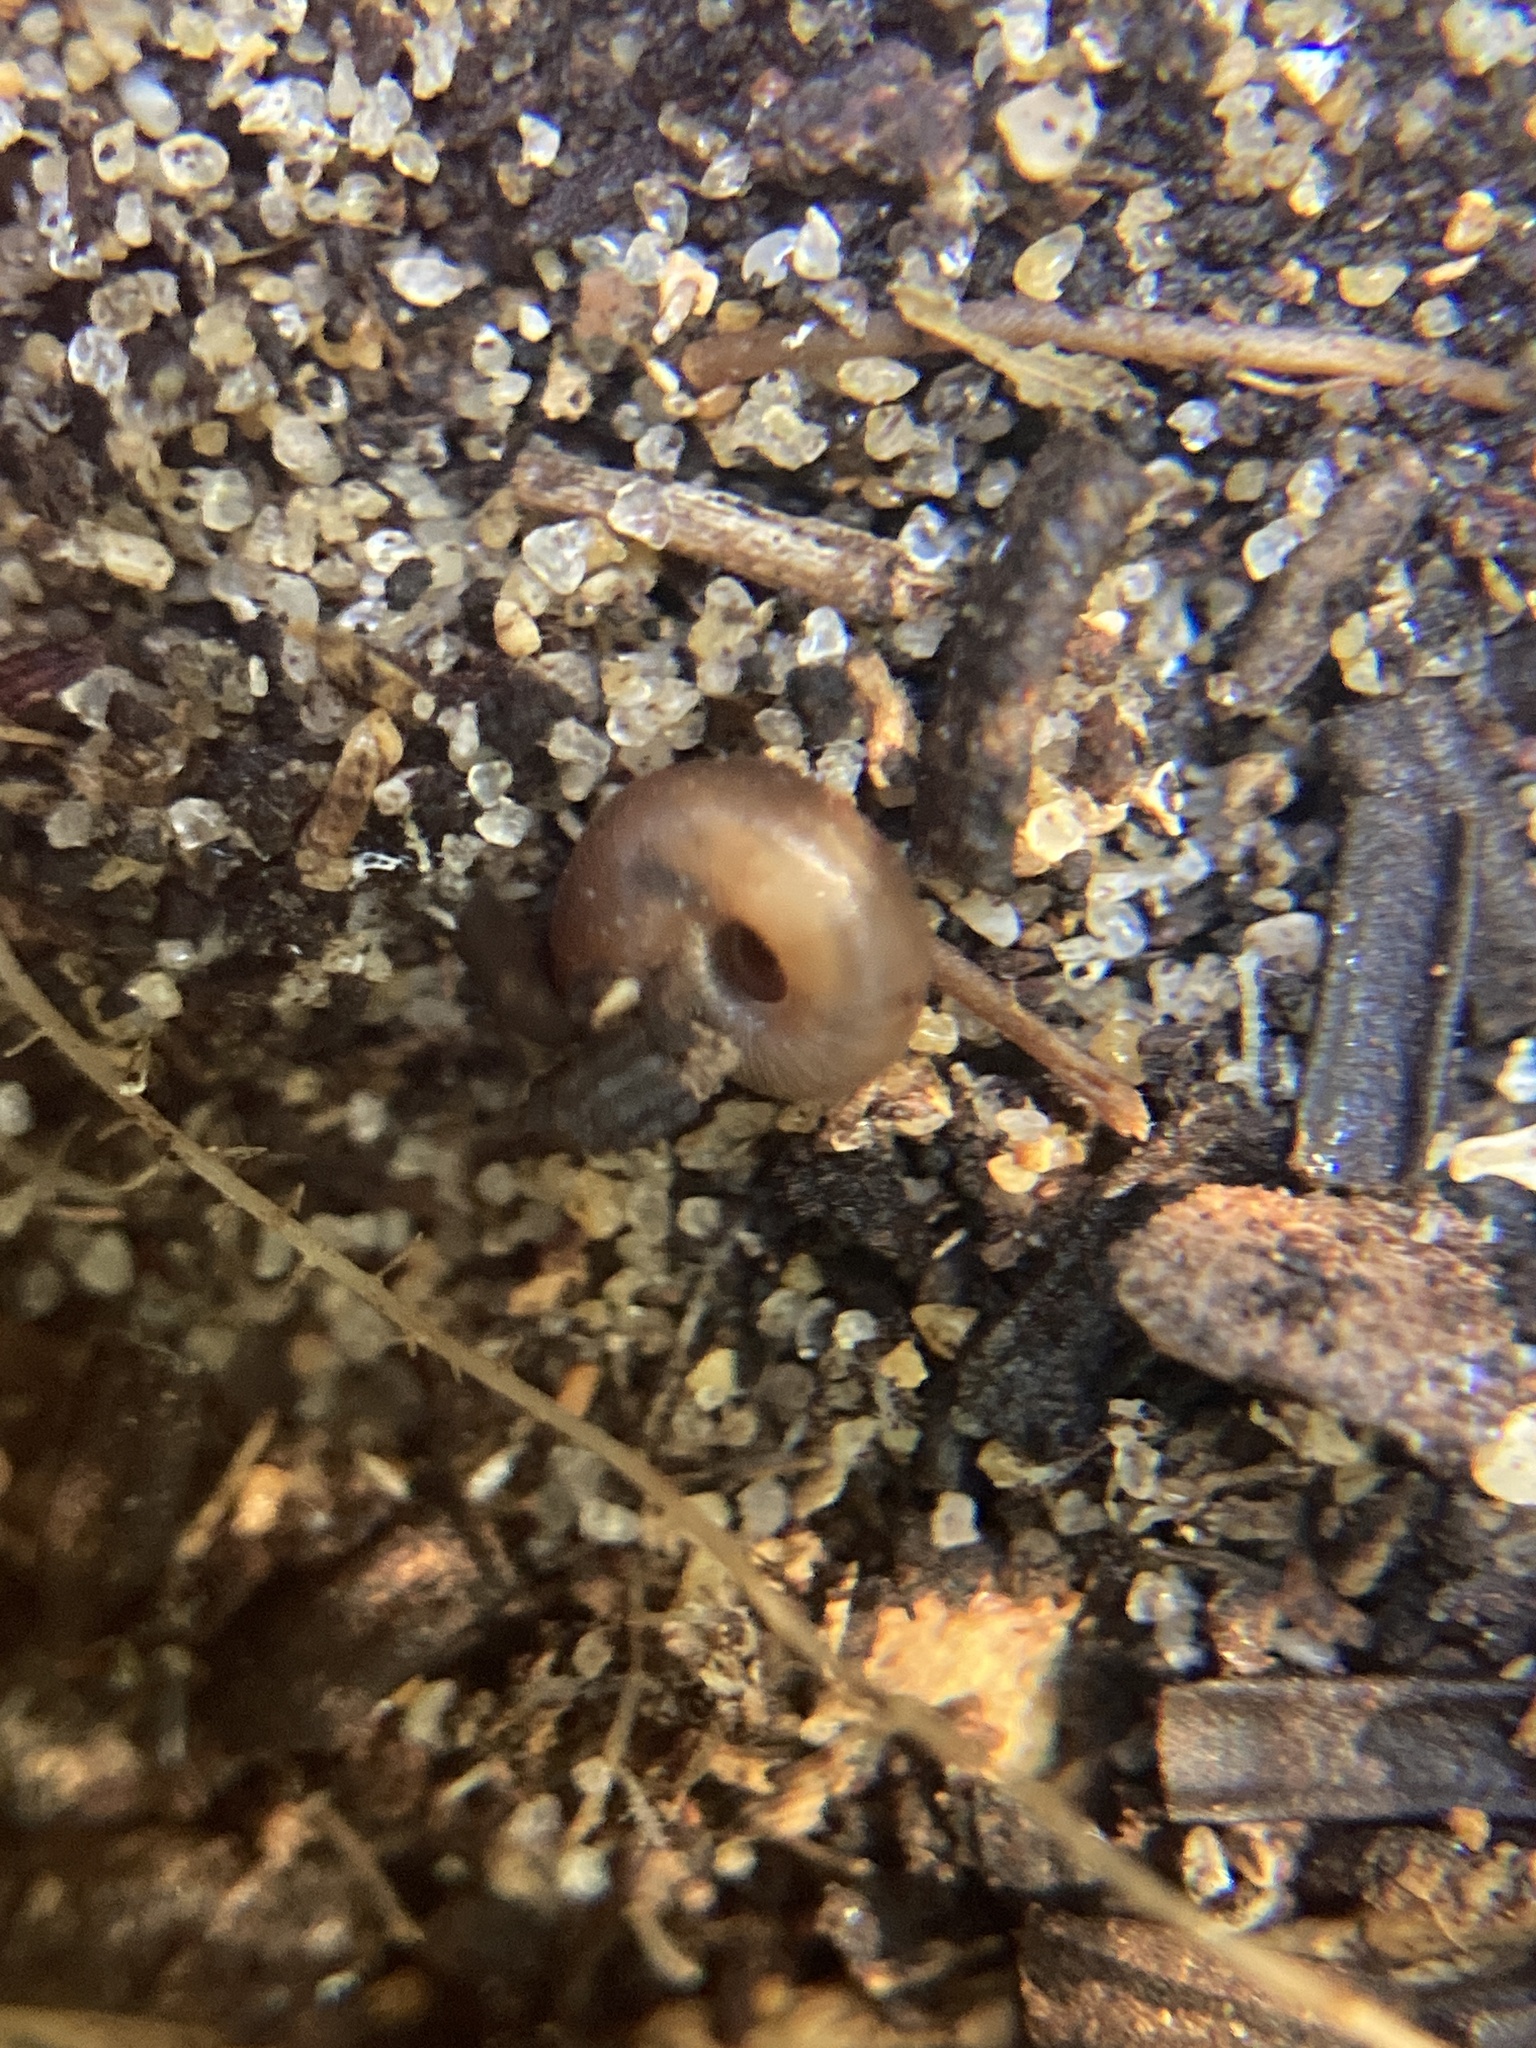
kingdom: Animalia
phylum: Mollusca
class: Gastropoda
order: Stylommatophora
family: Charopidae
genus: Diphyoropa
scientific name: Diphyoropa saturni
